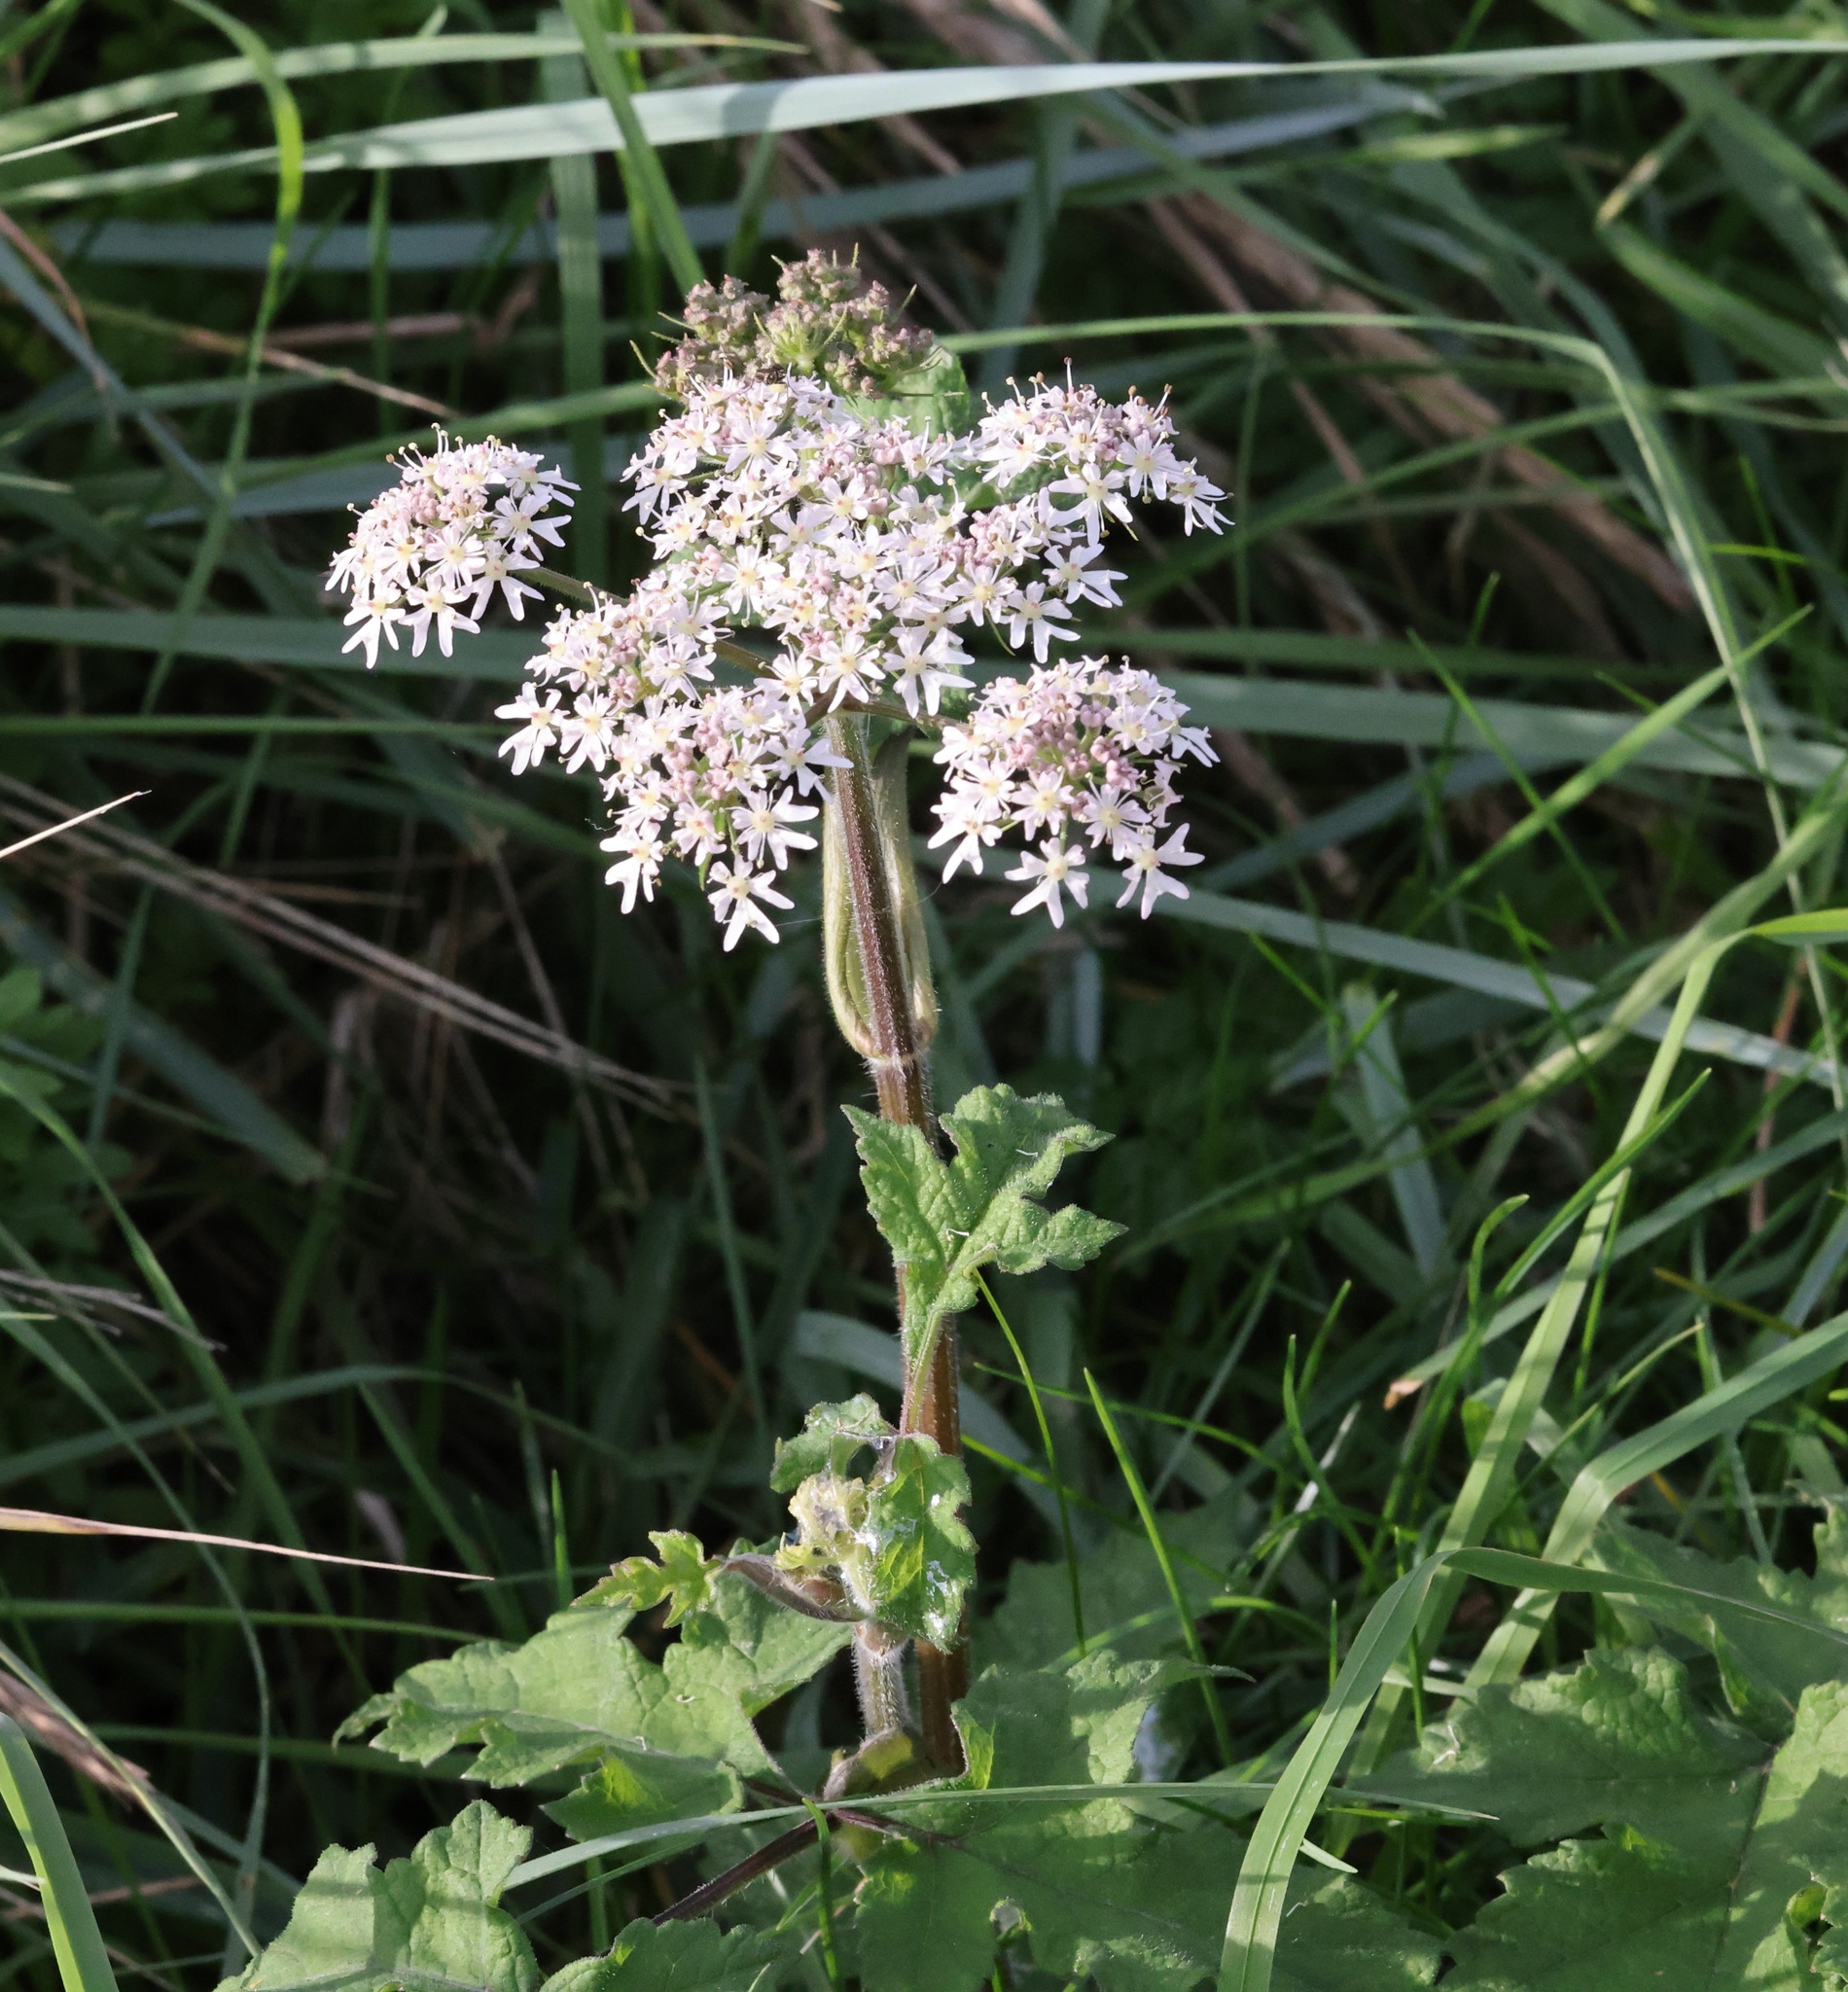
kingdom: Plantae
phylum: Tracheophyta
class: Magnoliopsida
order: Apiales
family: Apiaceae
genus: Heracleum
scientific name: Heracleum sphondylium
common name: Hogweed
